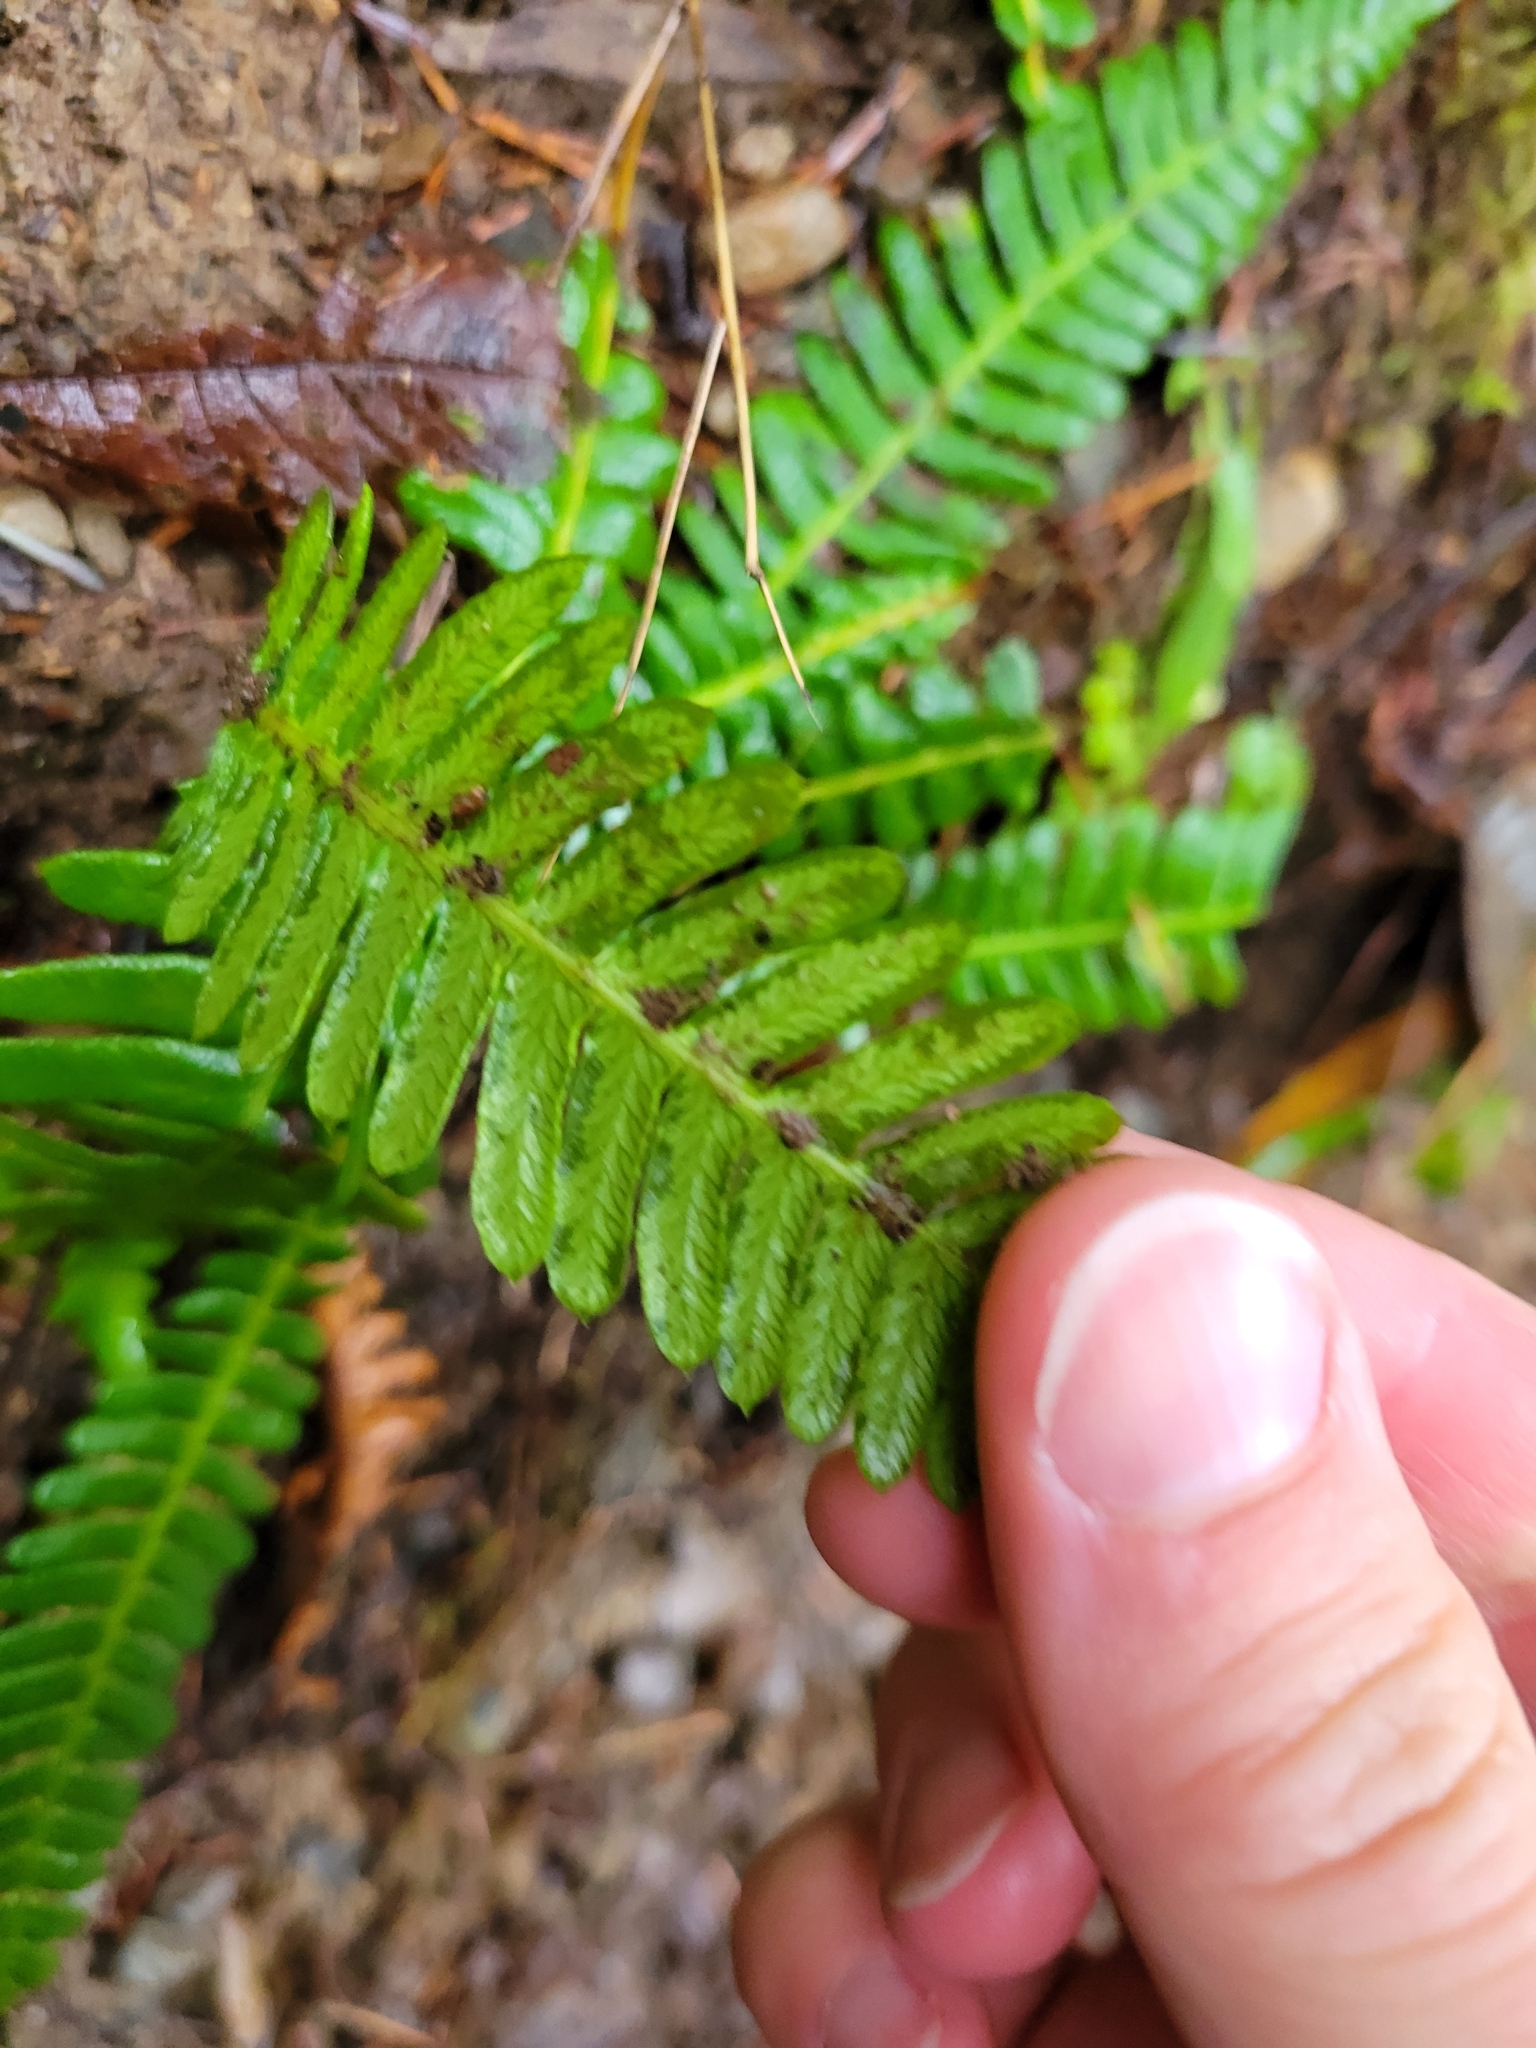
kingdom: Plantae
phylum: Tracheophyta
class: Polypodiopsida
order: Polypodiales
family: Blechnaceae
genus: Struthiopteris
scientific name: Struthiopteris spicant
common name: Deer fern
